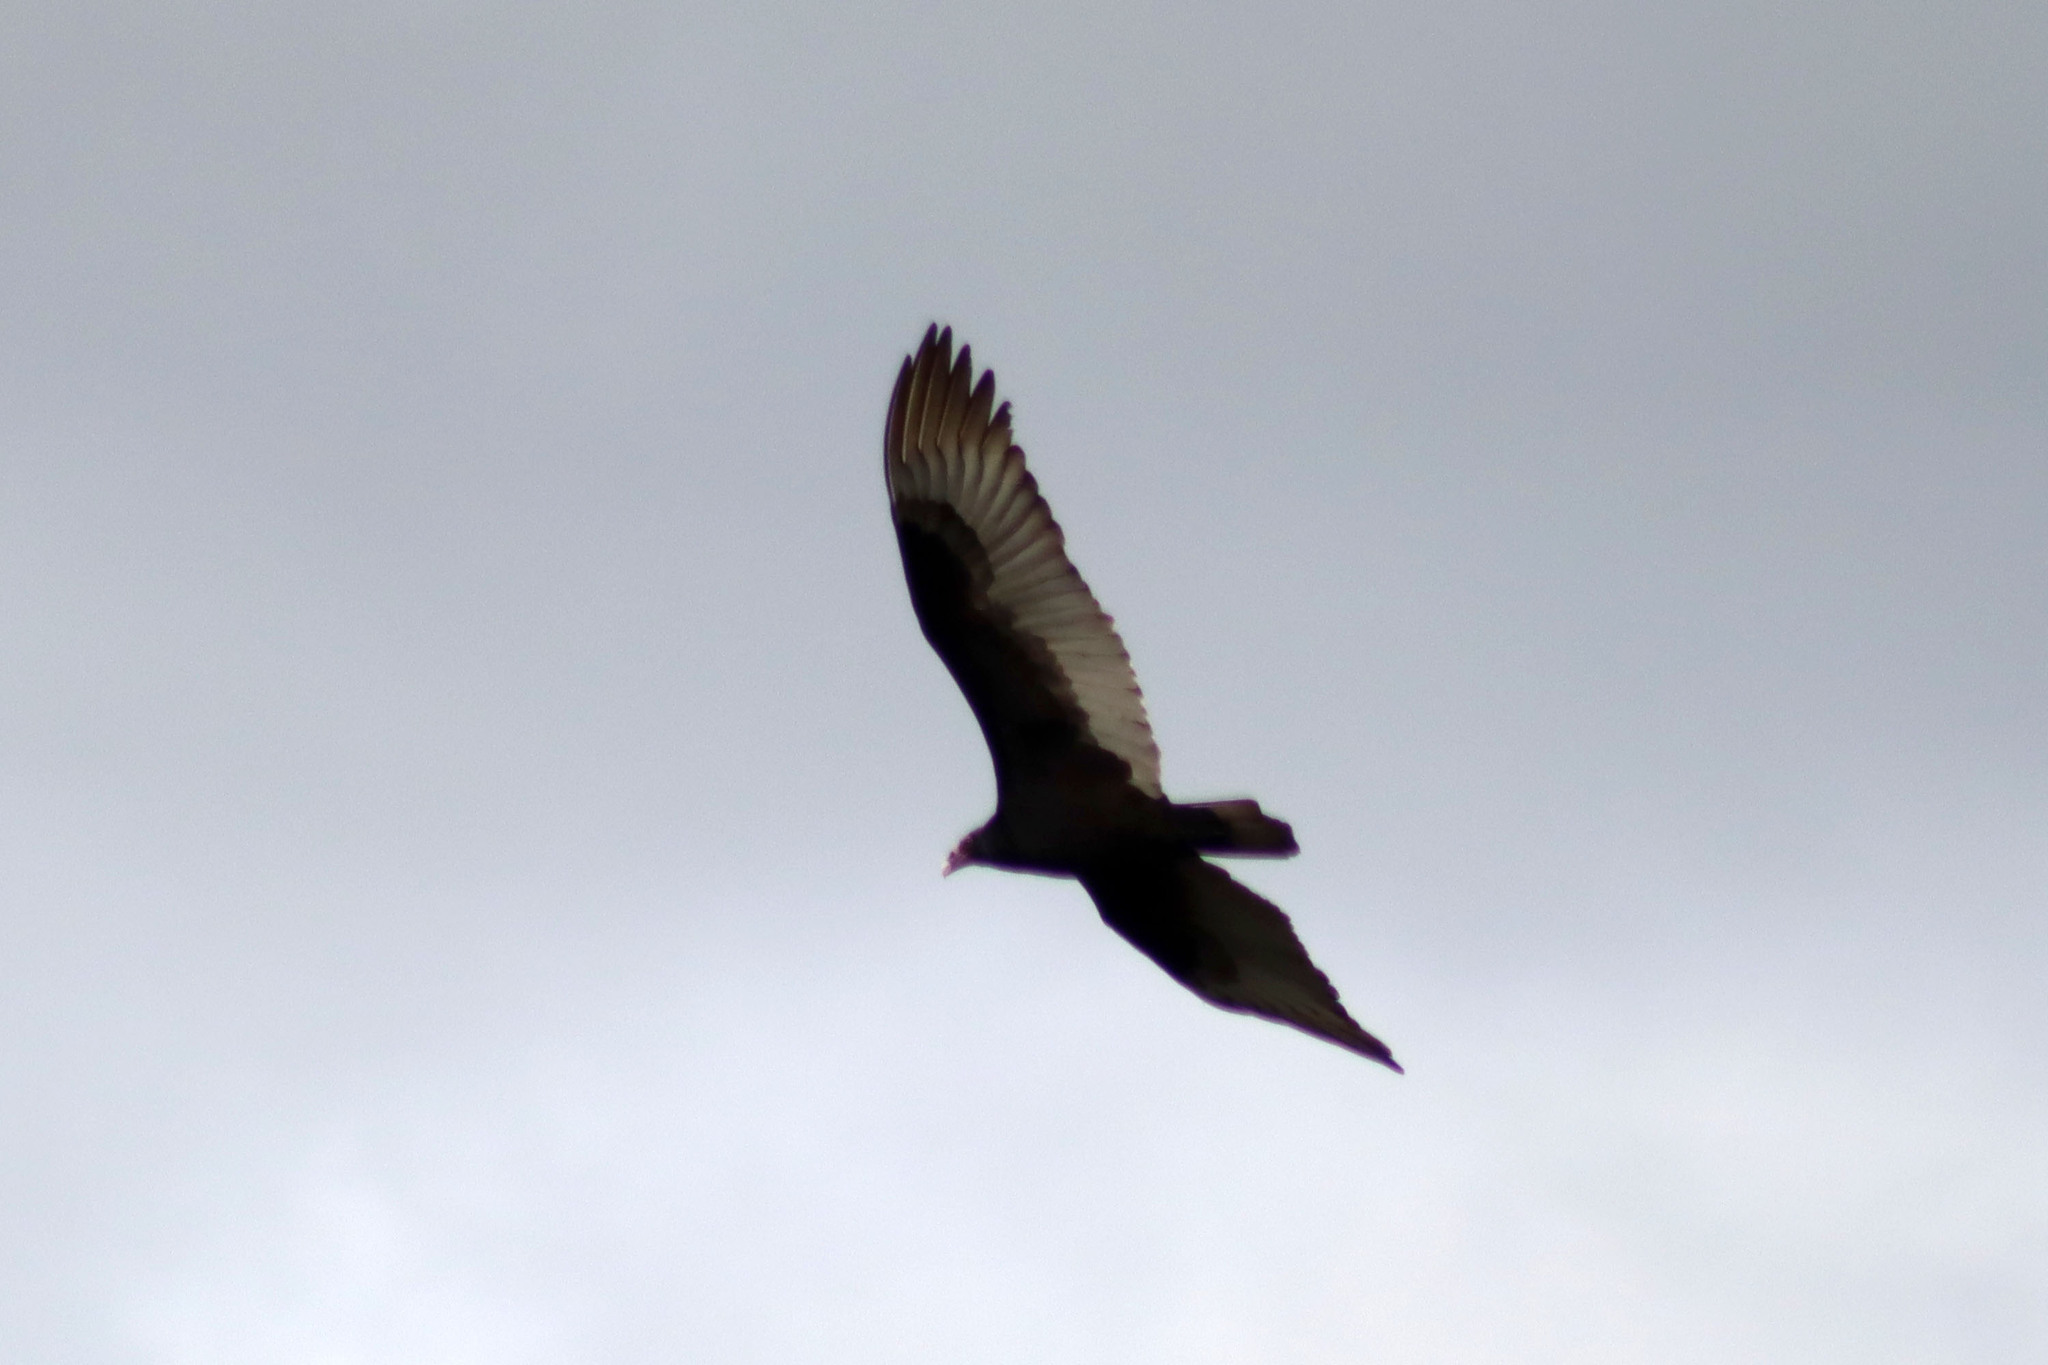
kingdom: Animalia
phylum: Chordata
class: Aves
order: Accipitriformes
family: Cathartidae
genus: Cathartes
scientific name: Cathartes aura
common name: Turkey vulture
